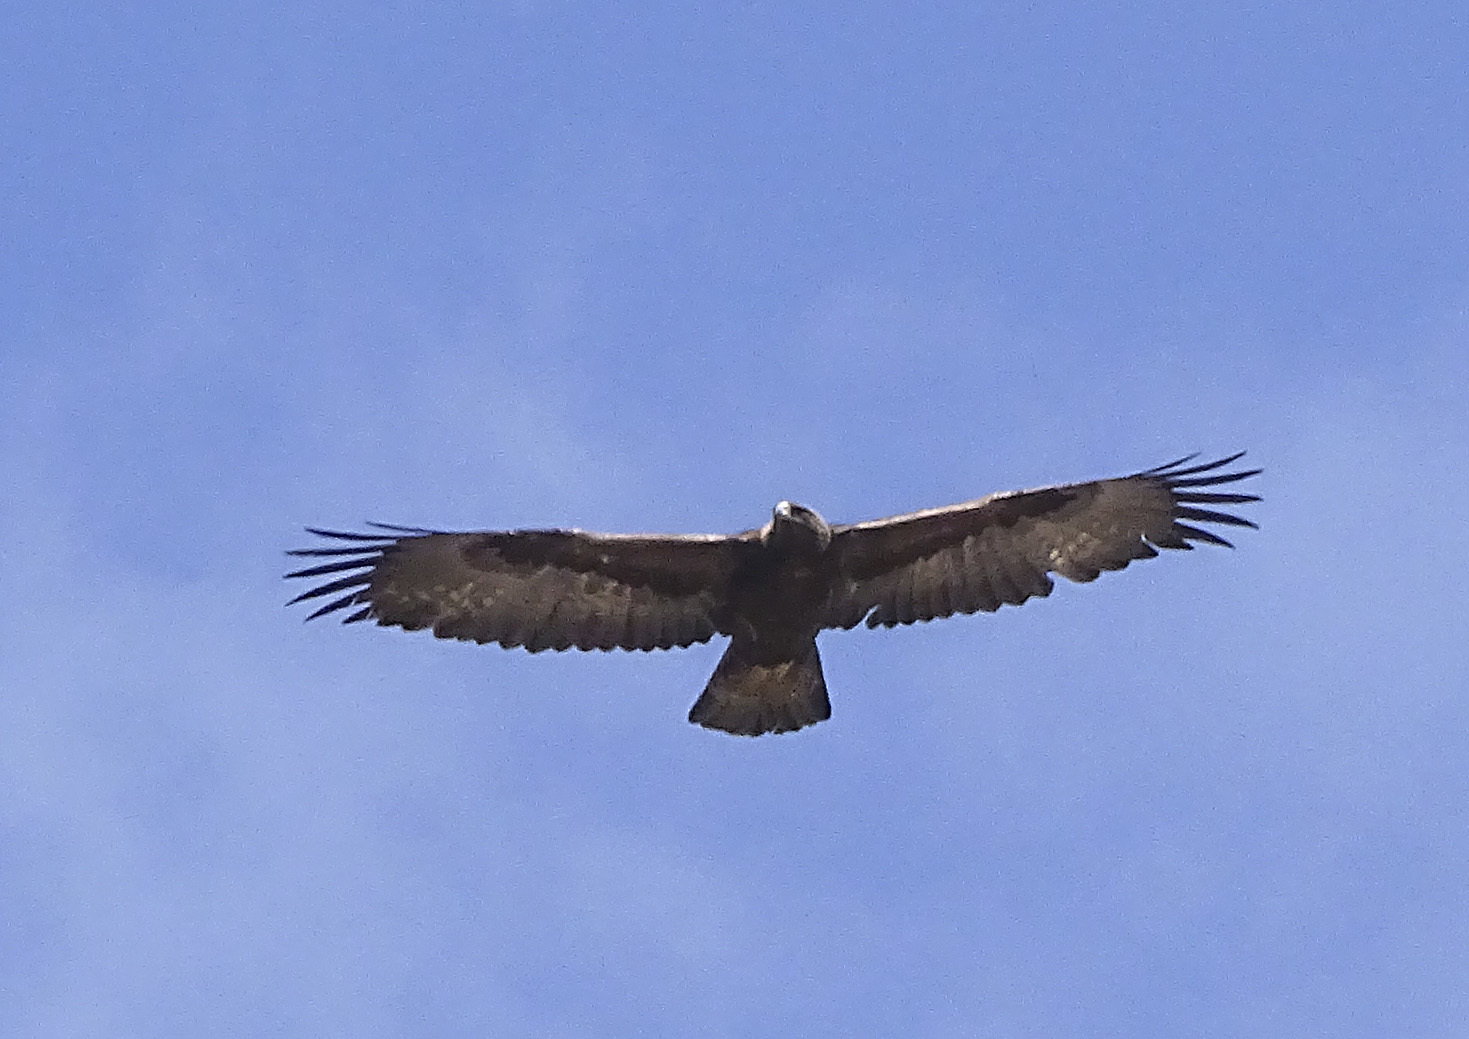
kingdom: Animalia
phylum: Chordata
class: Aves
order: Accipitriformes
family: Accipitridae
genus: Aquila
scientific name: Aquila chrysaetos
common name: Golden eagle
